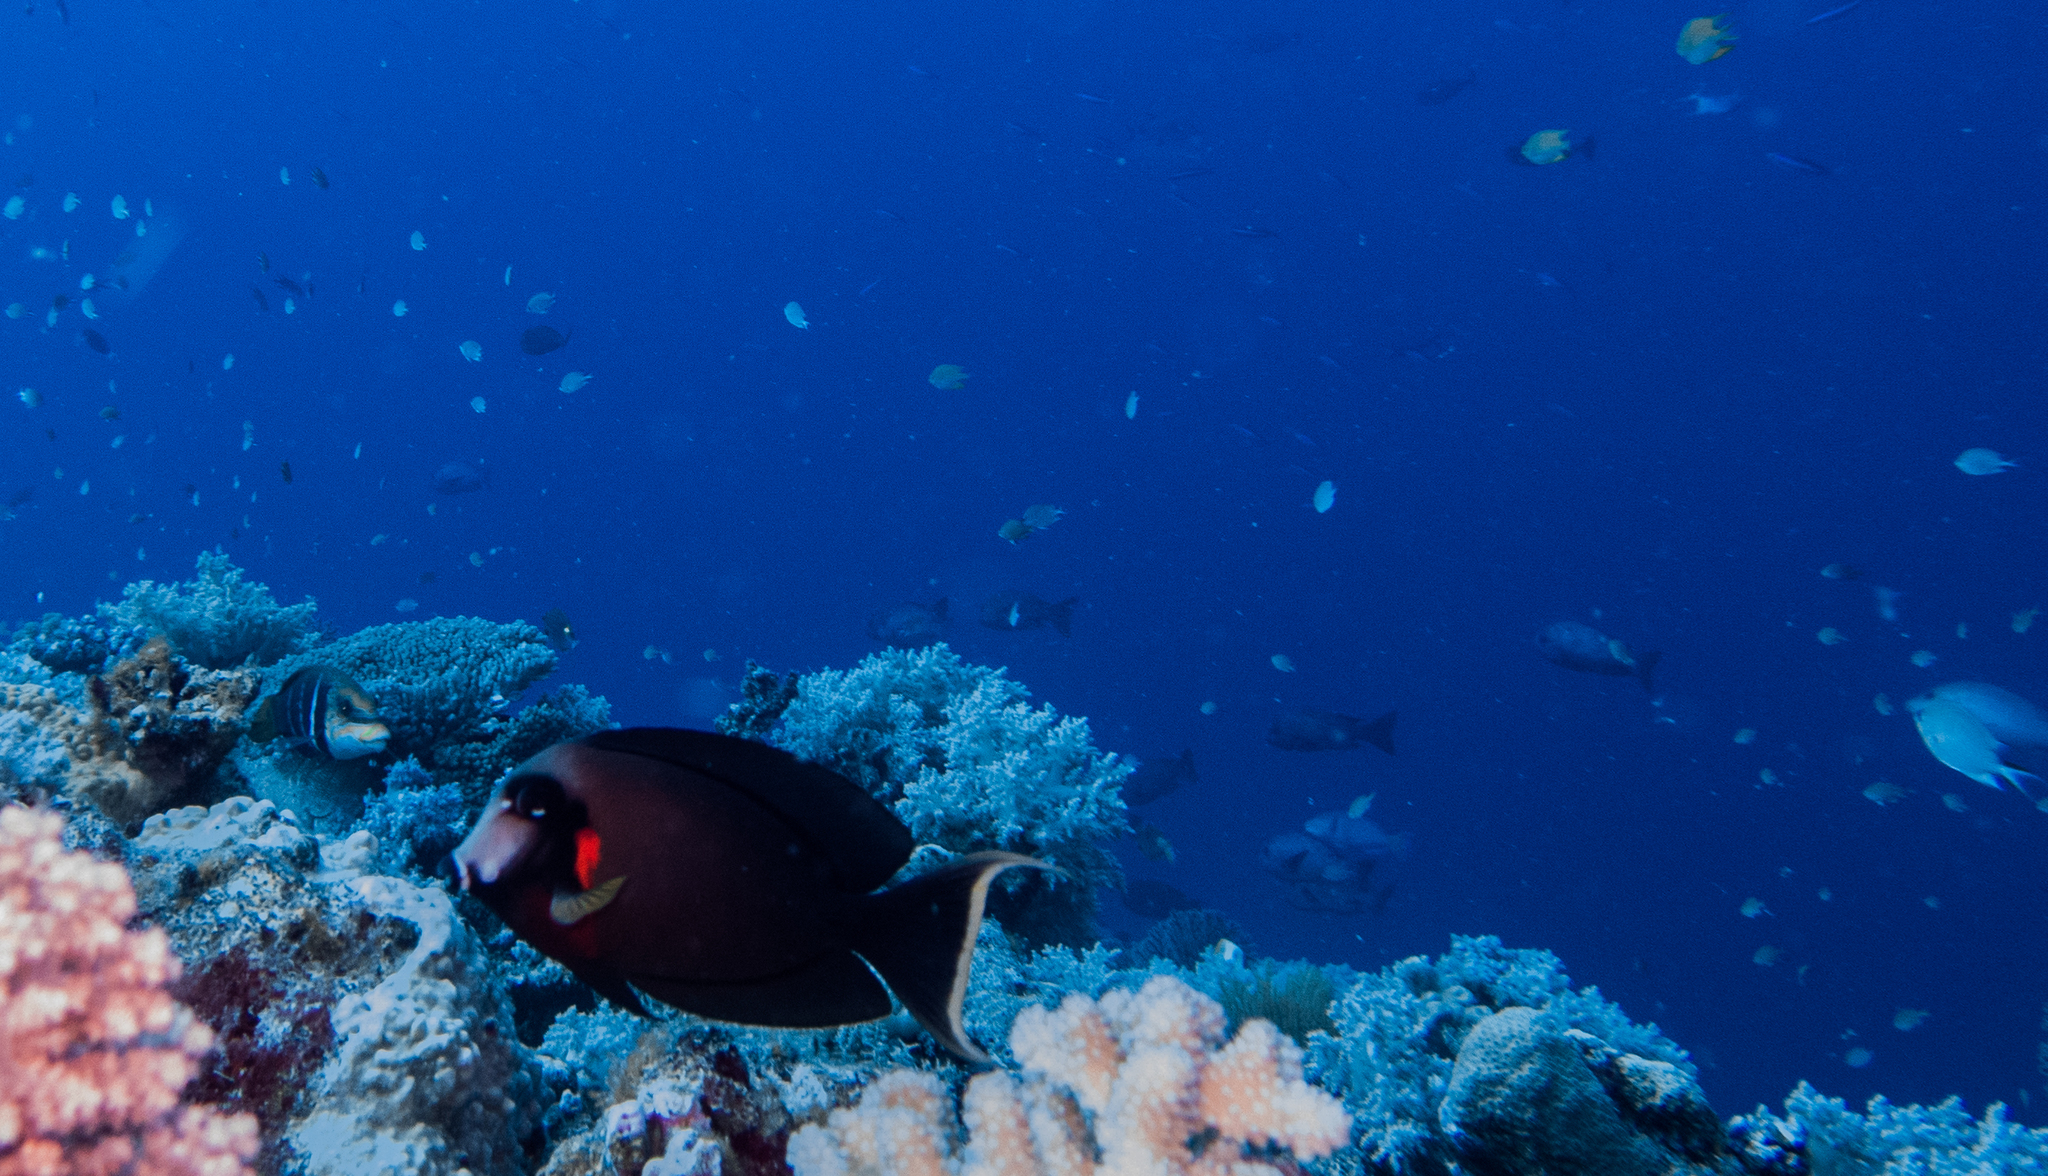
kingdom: Animalia
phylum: Chordata
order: Perciformes
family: Acanthuridae
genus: Acanthurus
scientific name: Acanthurus pyroferus
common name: Chocolate surgeonfish
